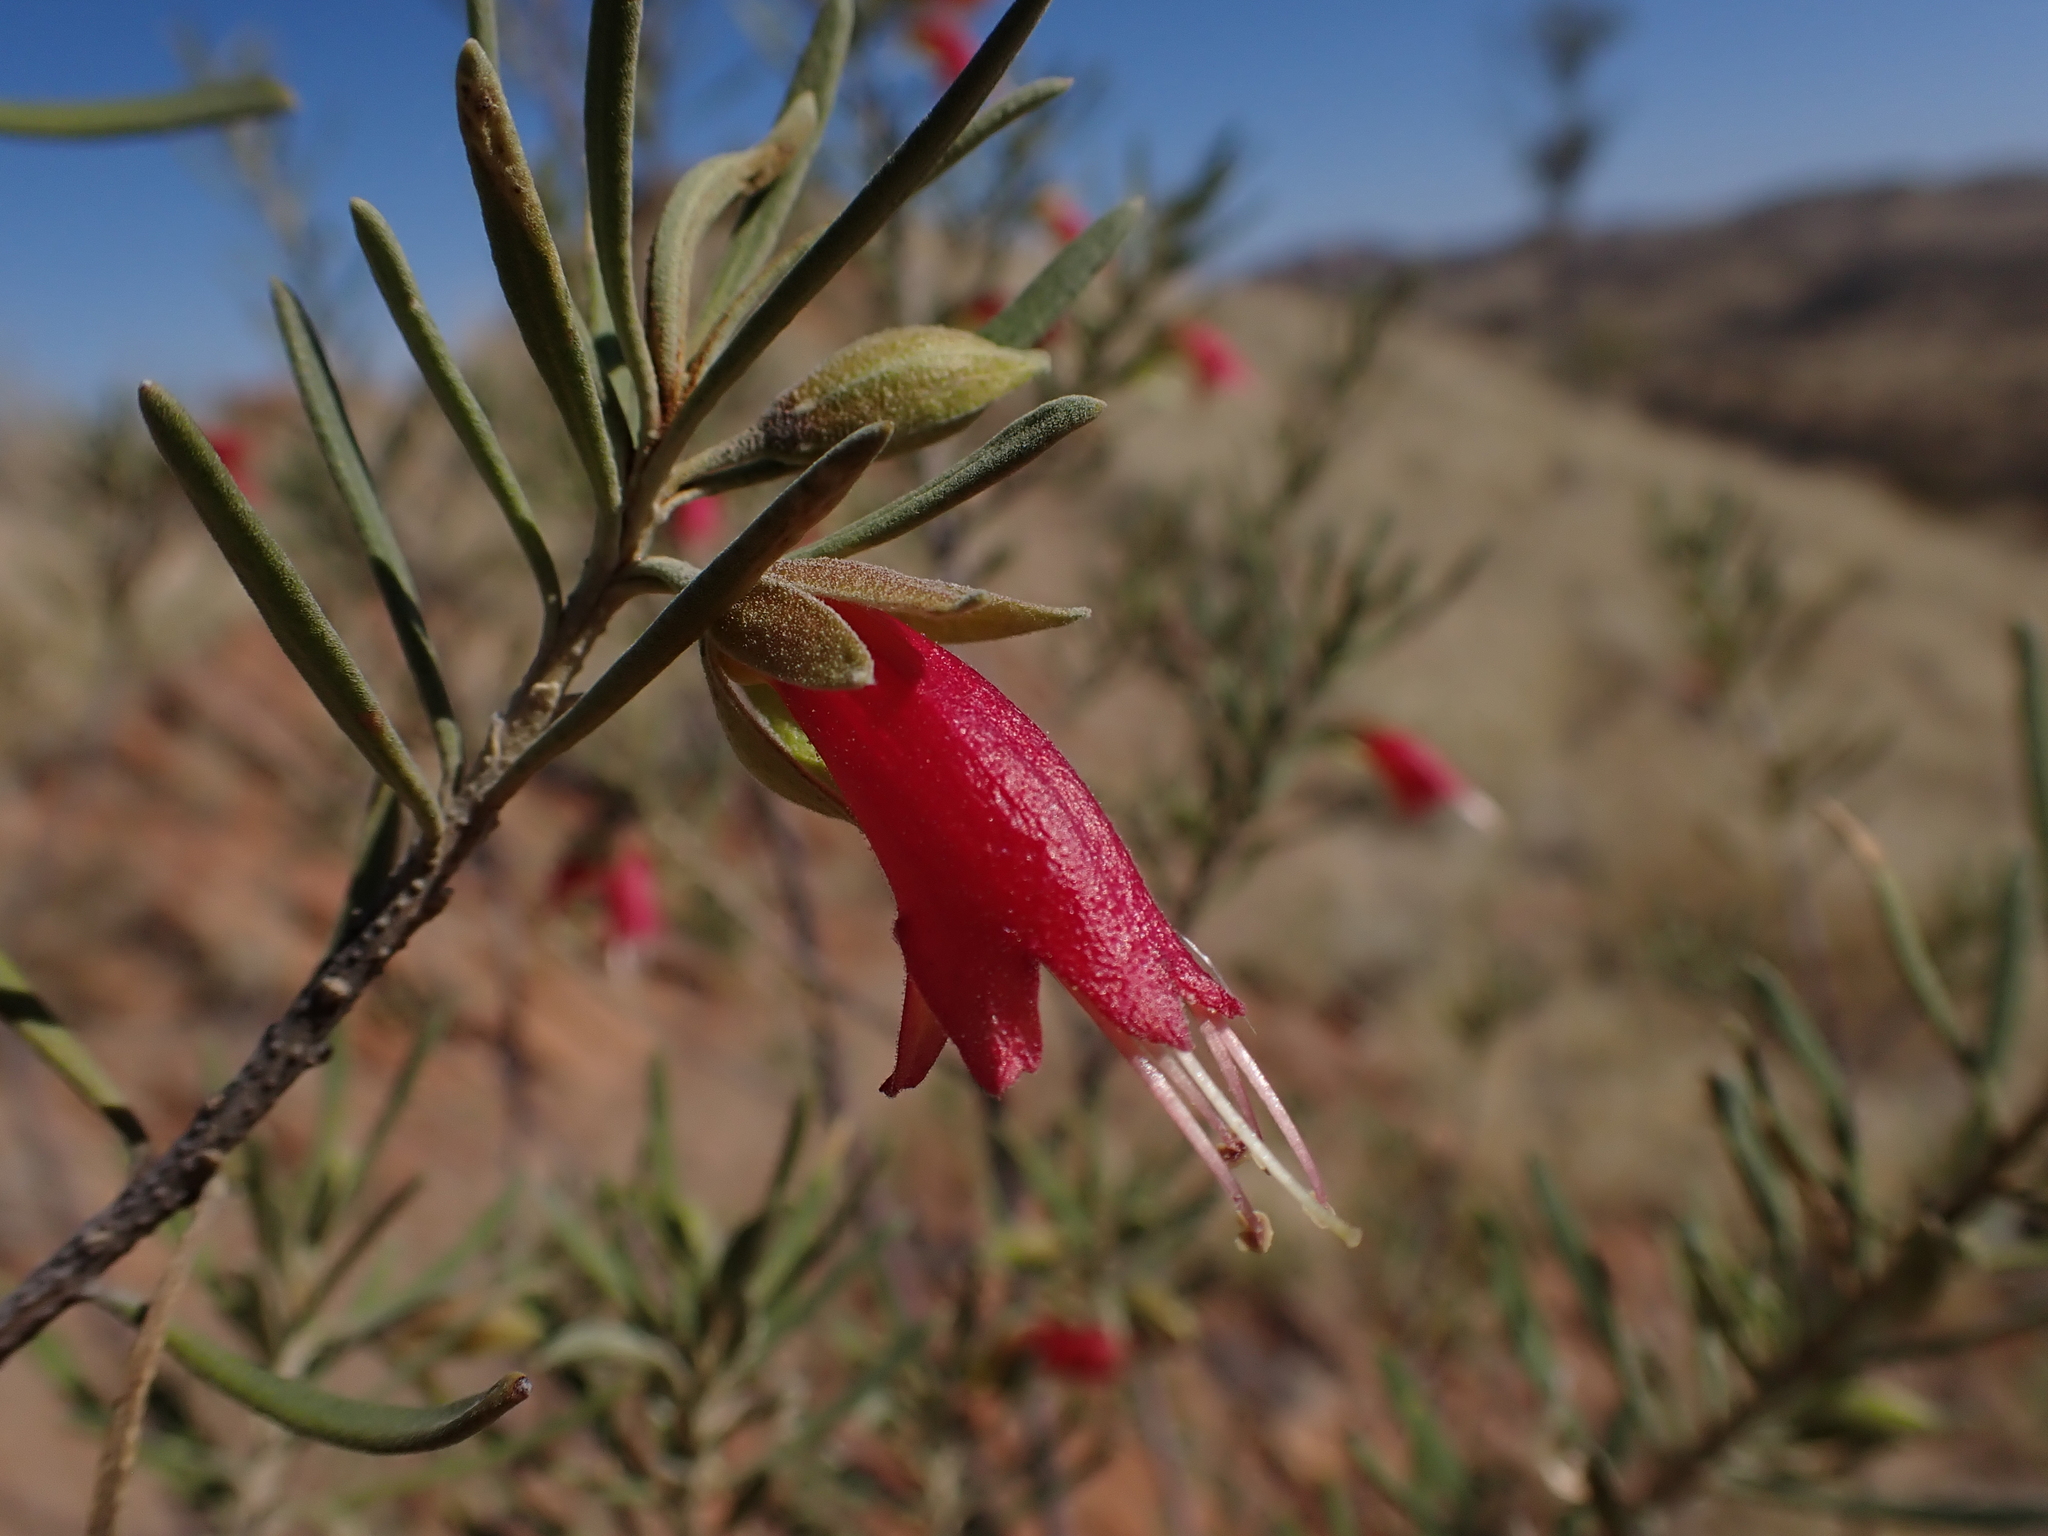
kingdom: Plantae
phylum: Tracheophyta
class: Magnoliopsida
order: Lamiales
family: Scrophulariaceae
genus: Eremophila
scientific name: Eremophila latrobei
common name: Crimson turkeybush
